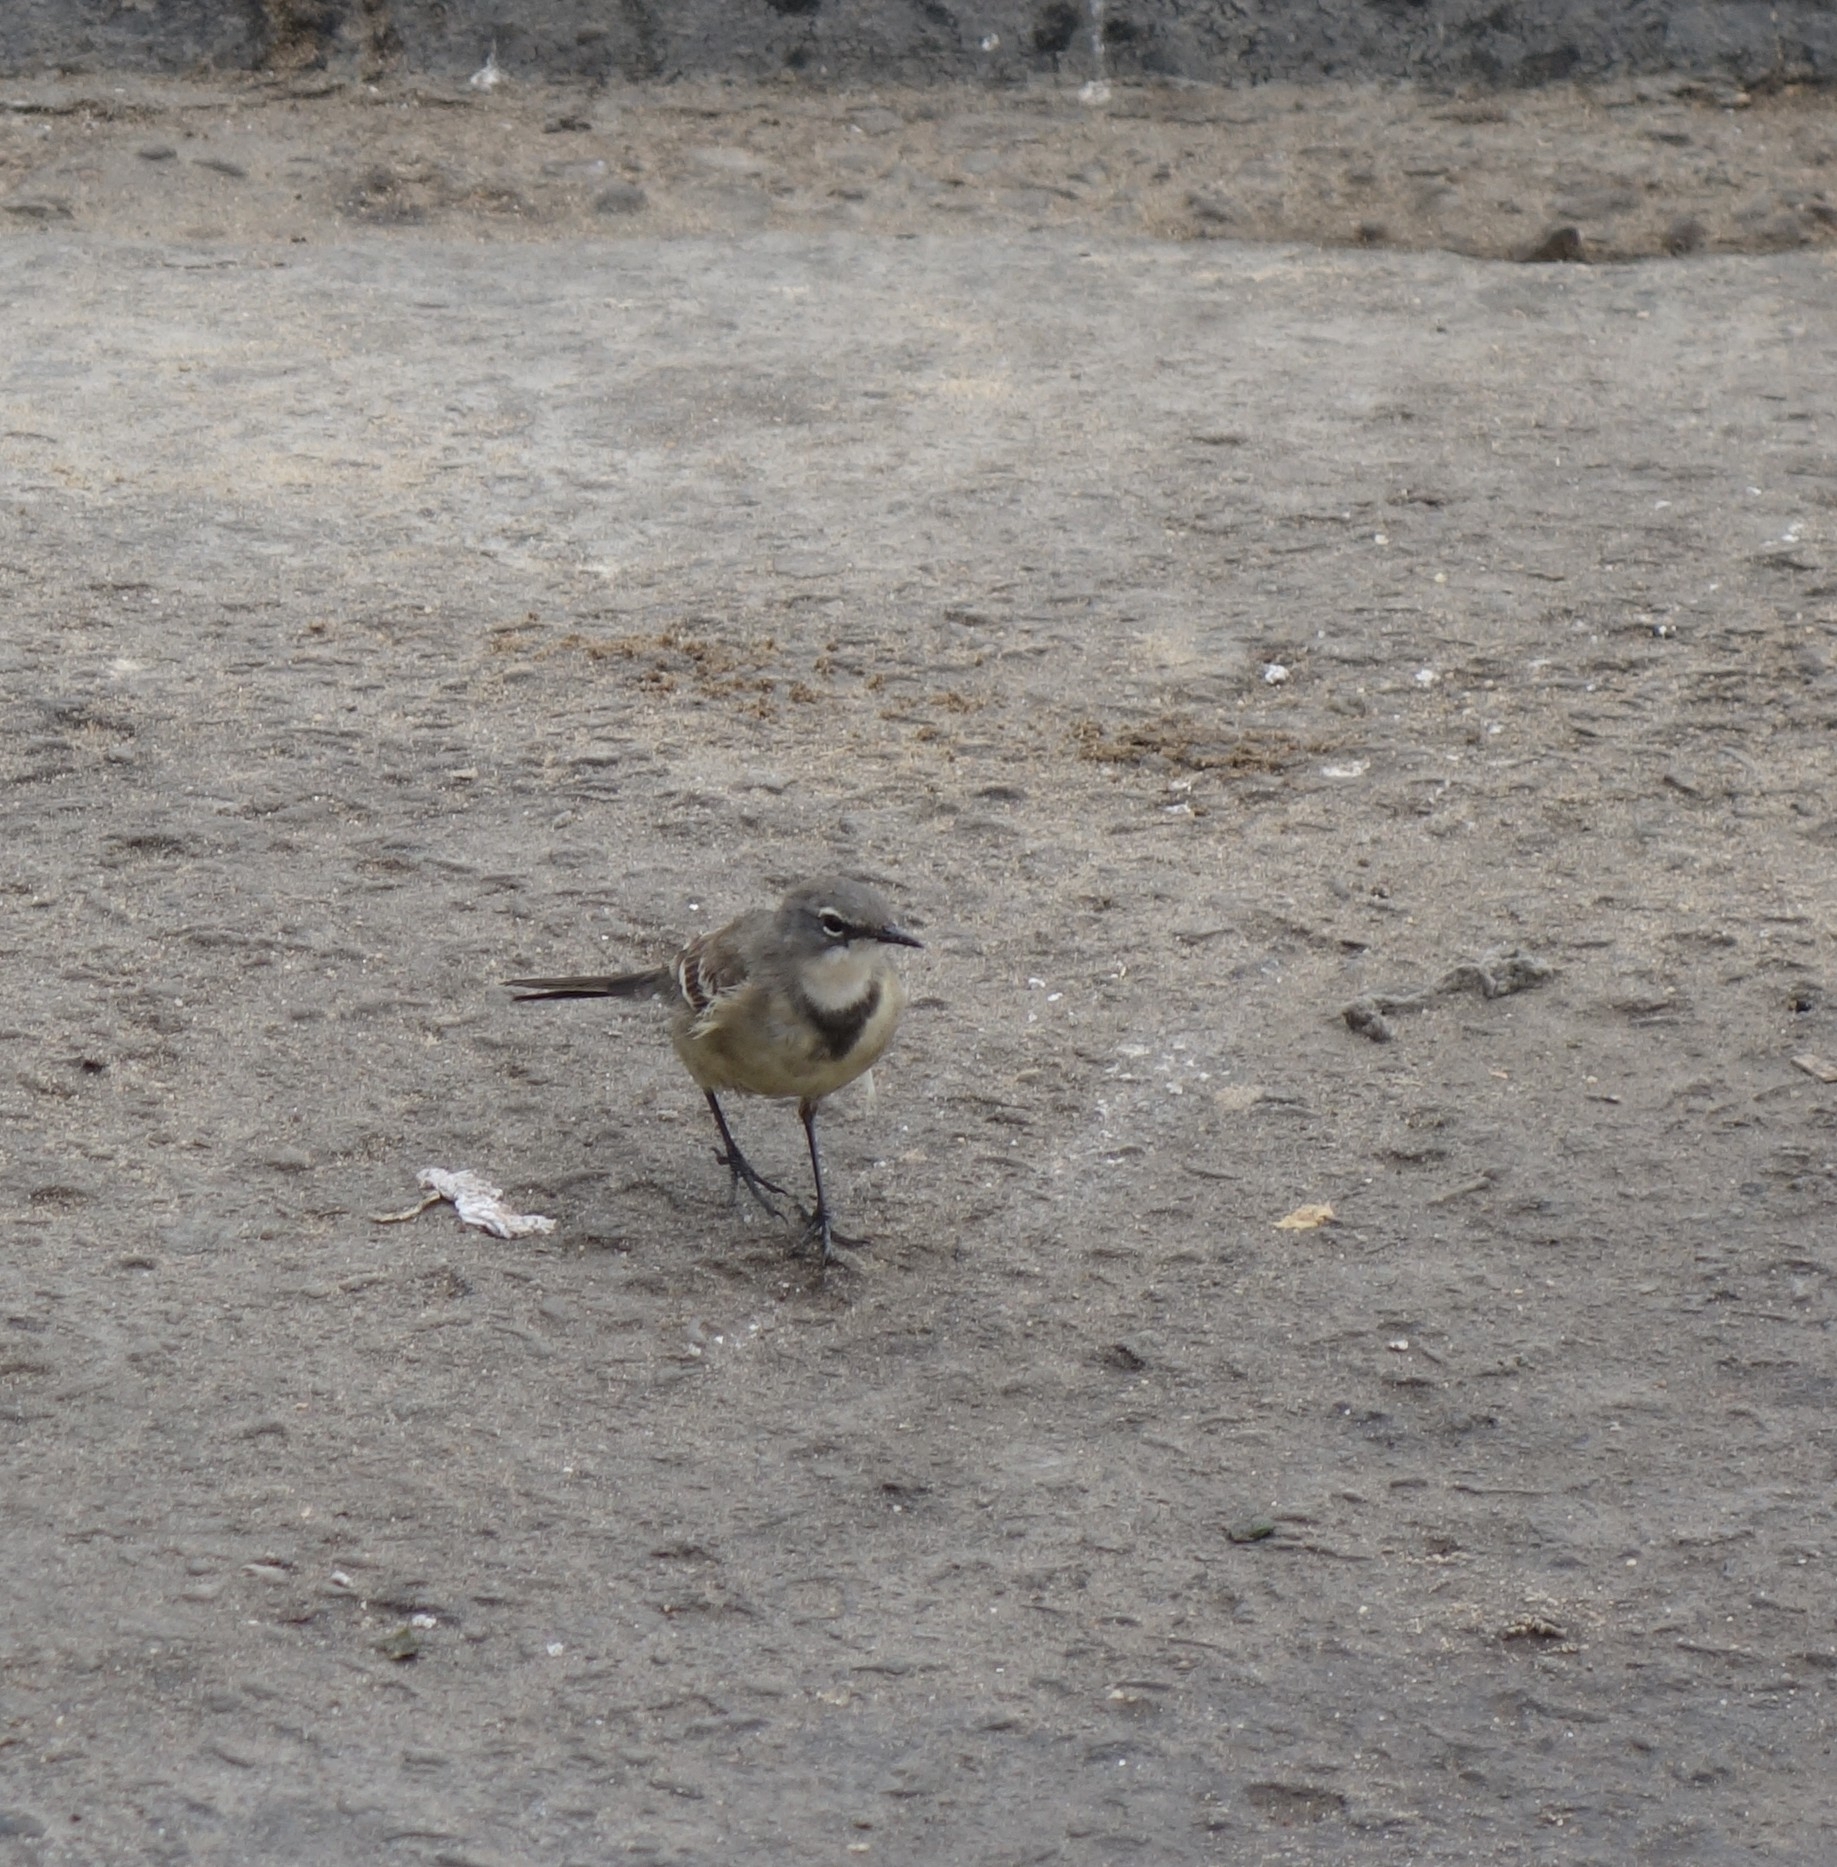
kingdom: Animalia
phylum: Chordata
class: Aves
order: Passeriformes
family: Motacillidae
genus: Motacilla
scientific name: Motacilla capensis
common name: Cape wagtail
